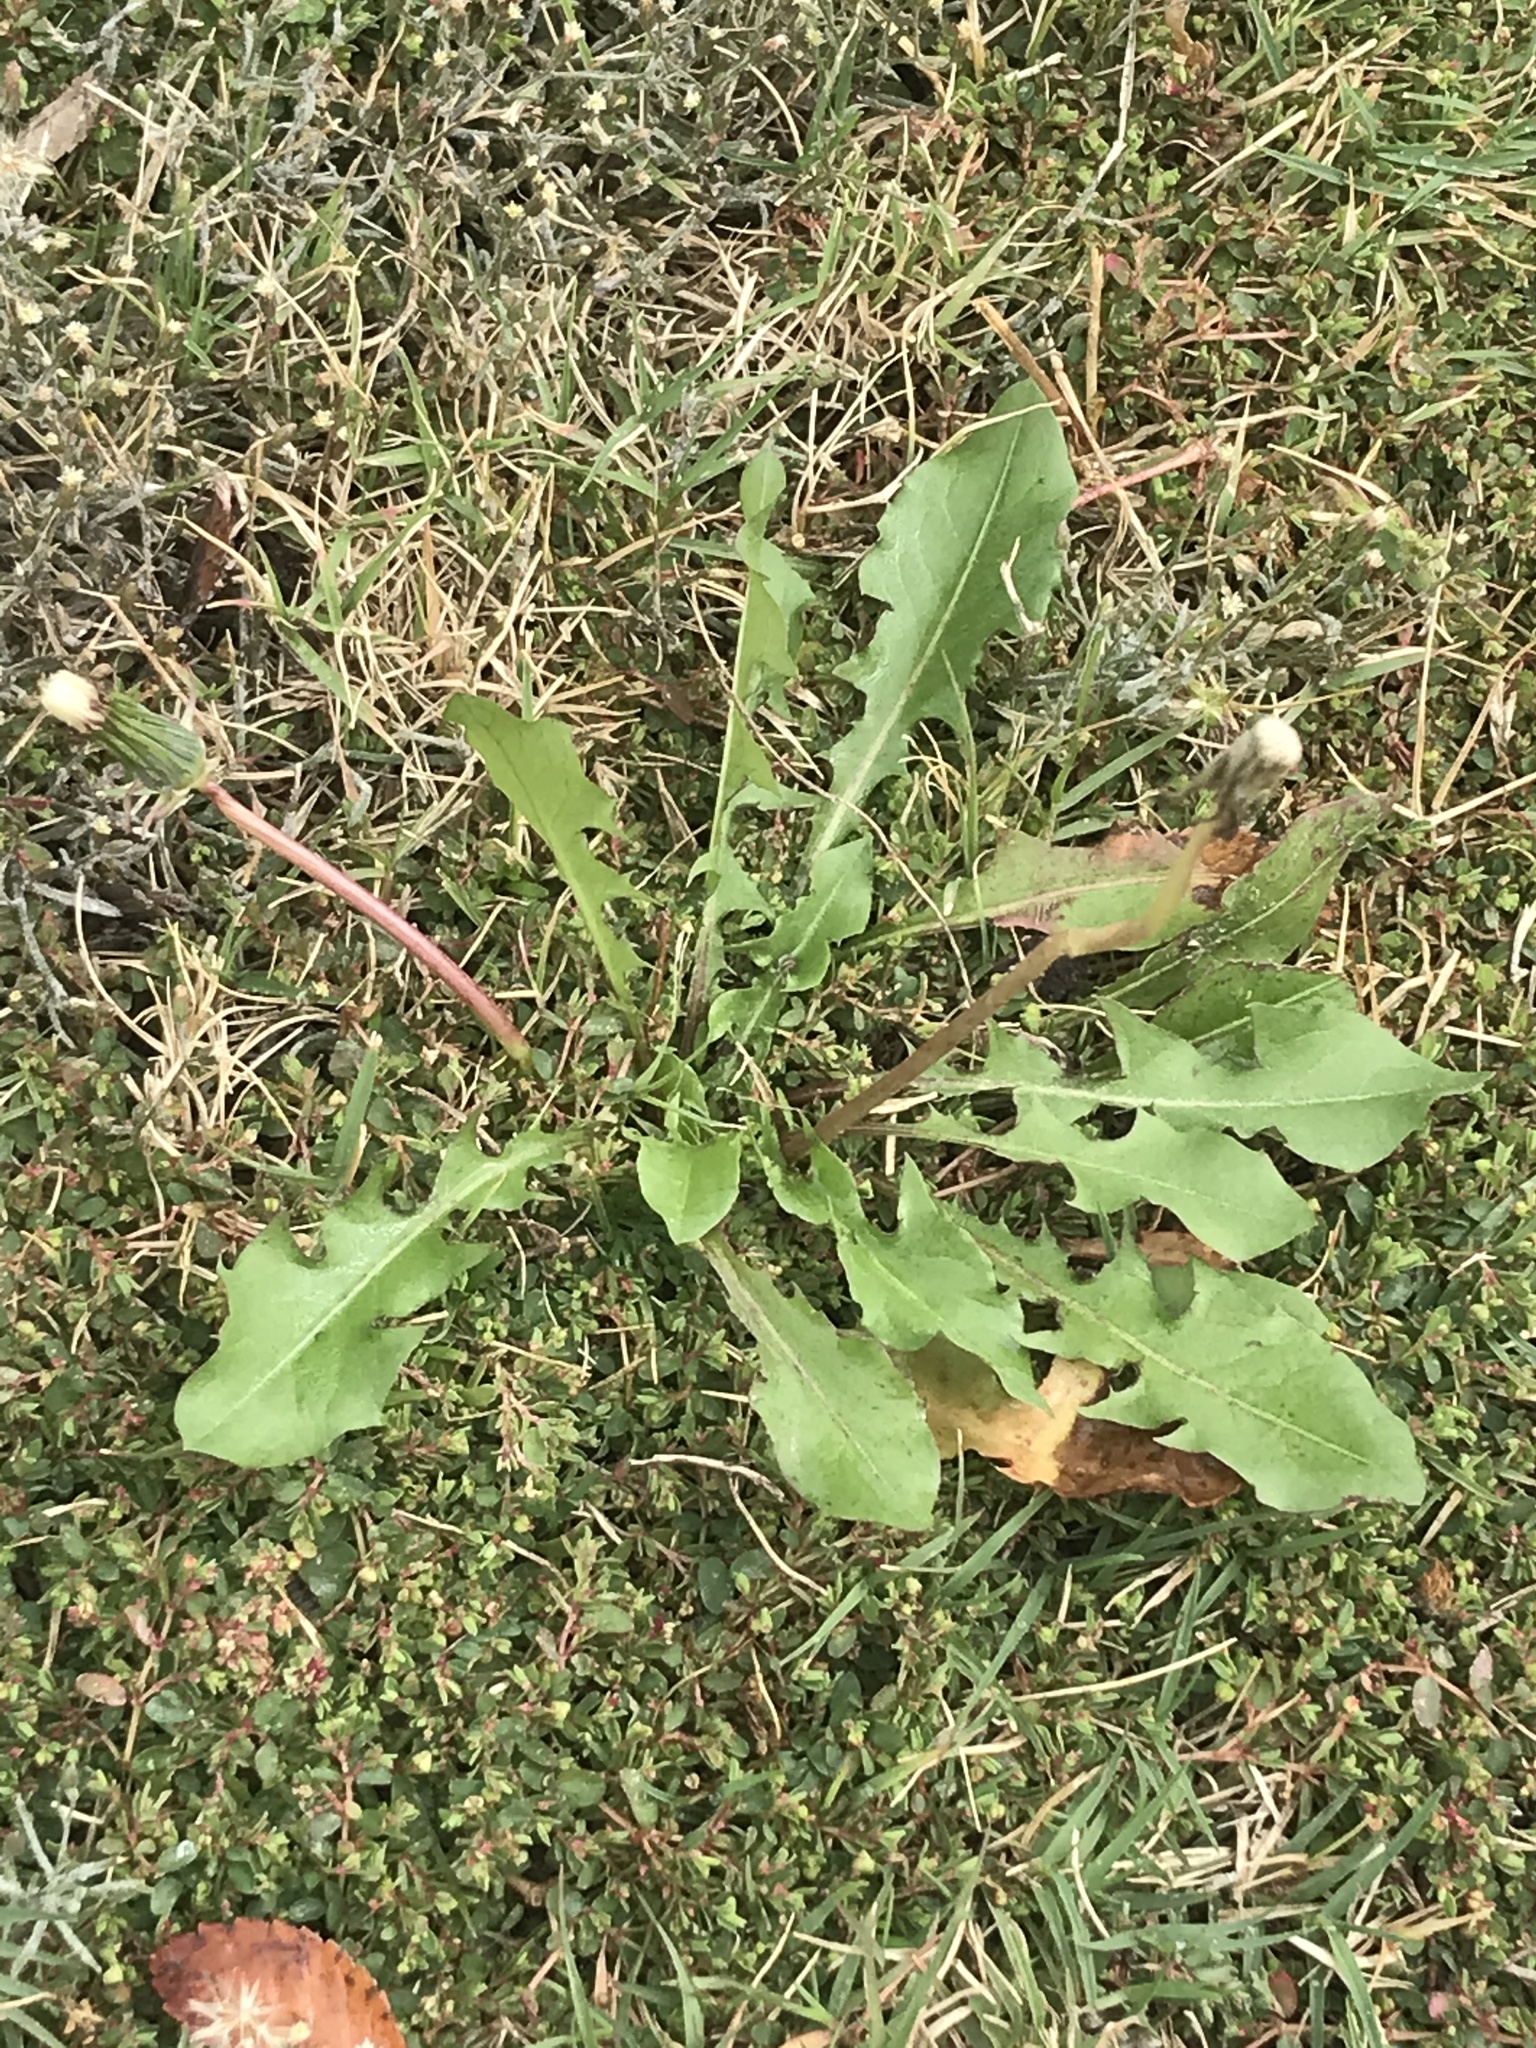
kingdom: Plantae
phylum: Tracheophyta
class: Magnoliopsida
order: Asterales
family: Asteraceae
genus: Taraxacum
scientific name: Taraxacum officinale
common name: Common dandelion
